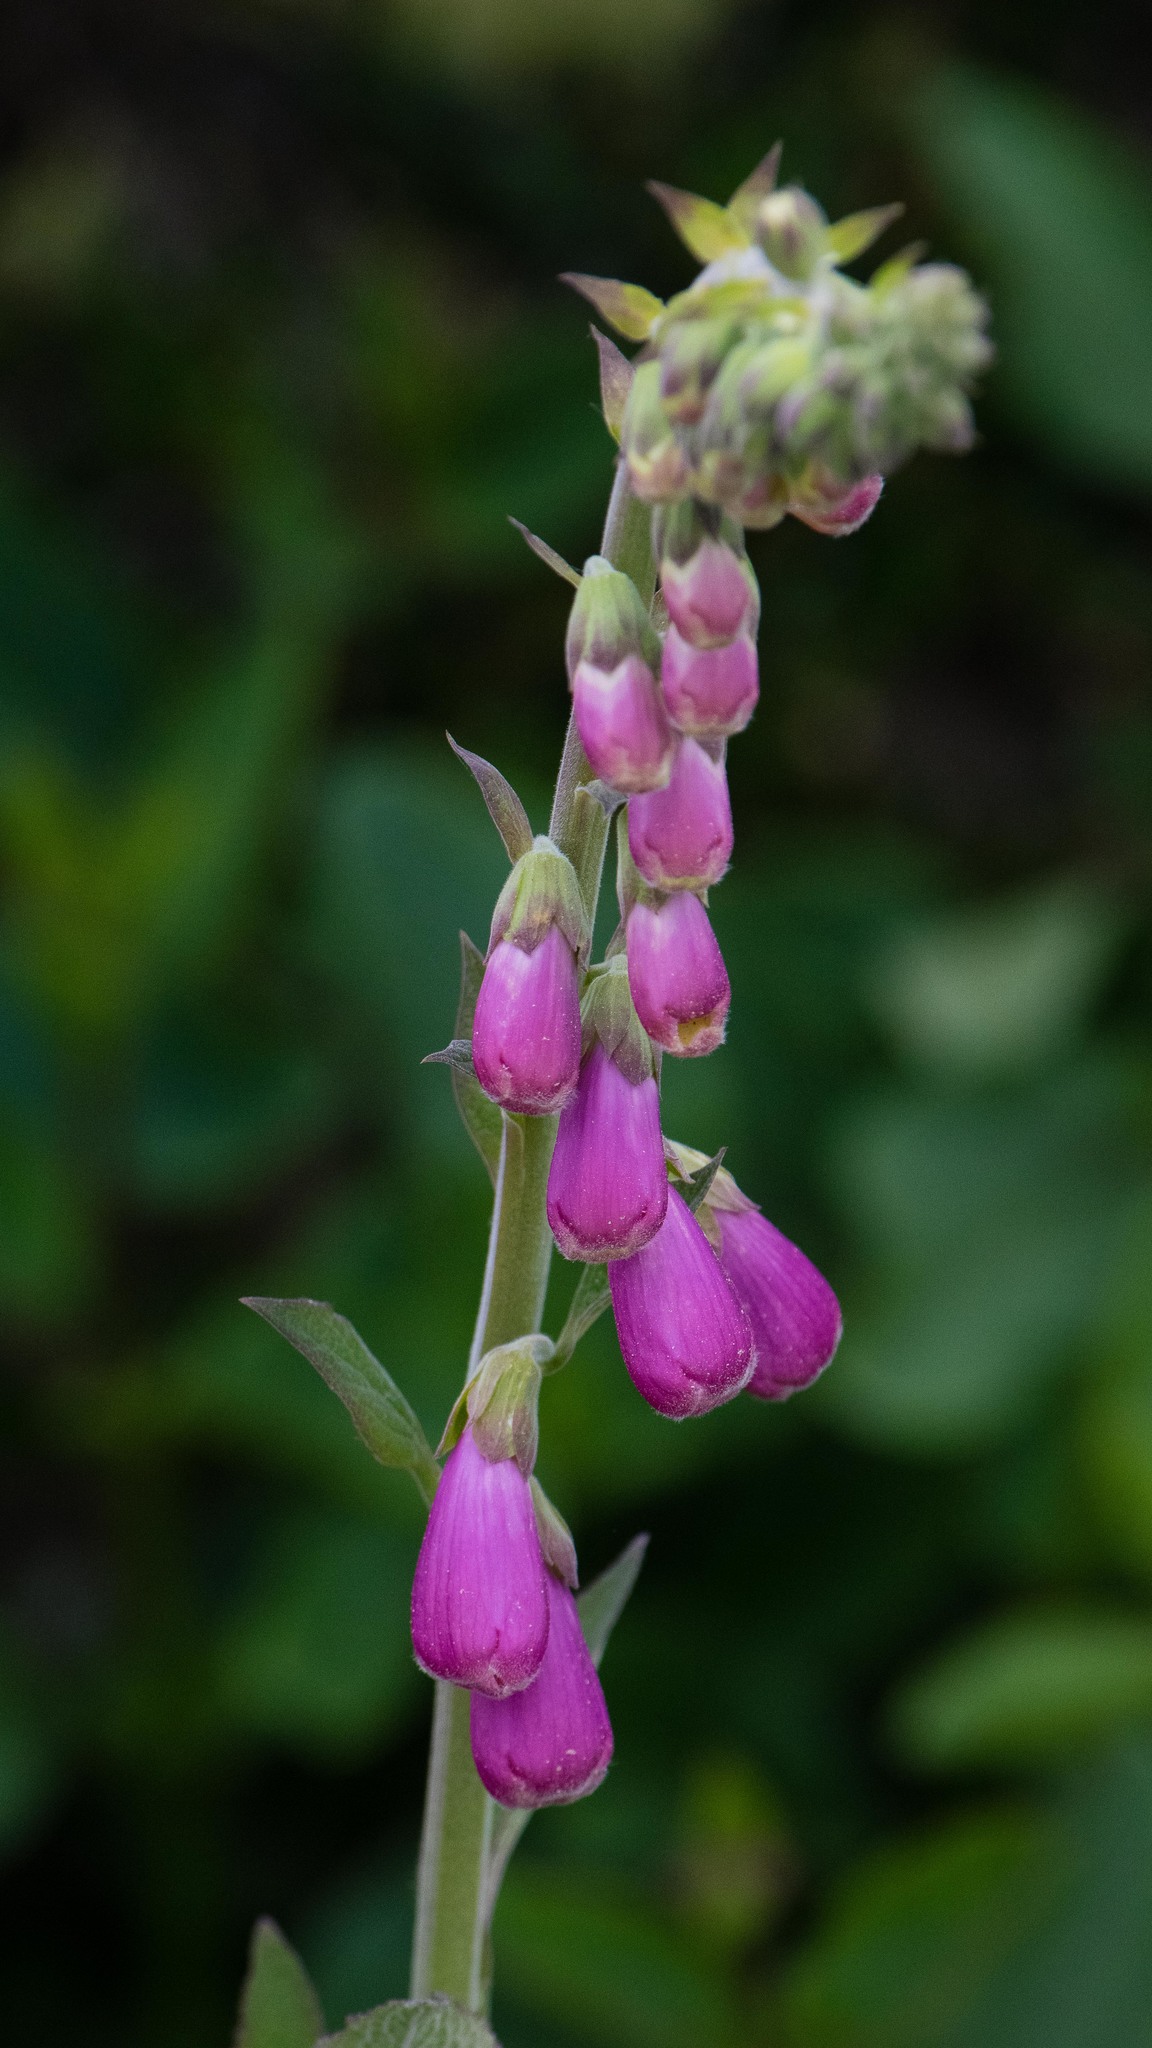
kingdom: Plantae
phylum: Tracheophyta
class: Magnoliopsida
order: Lamiales
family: Plantaginaceae
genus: Digitalis
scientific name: Digitalis purpurea
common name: Foxglove
